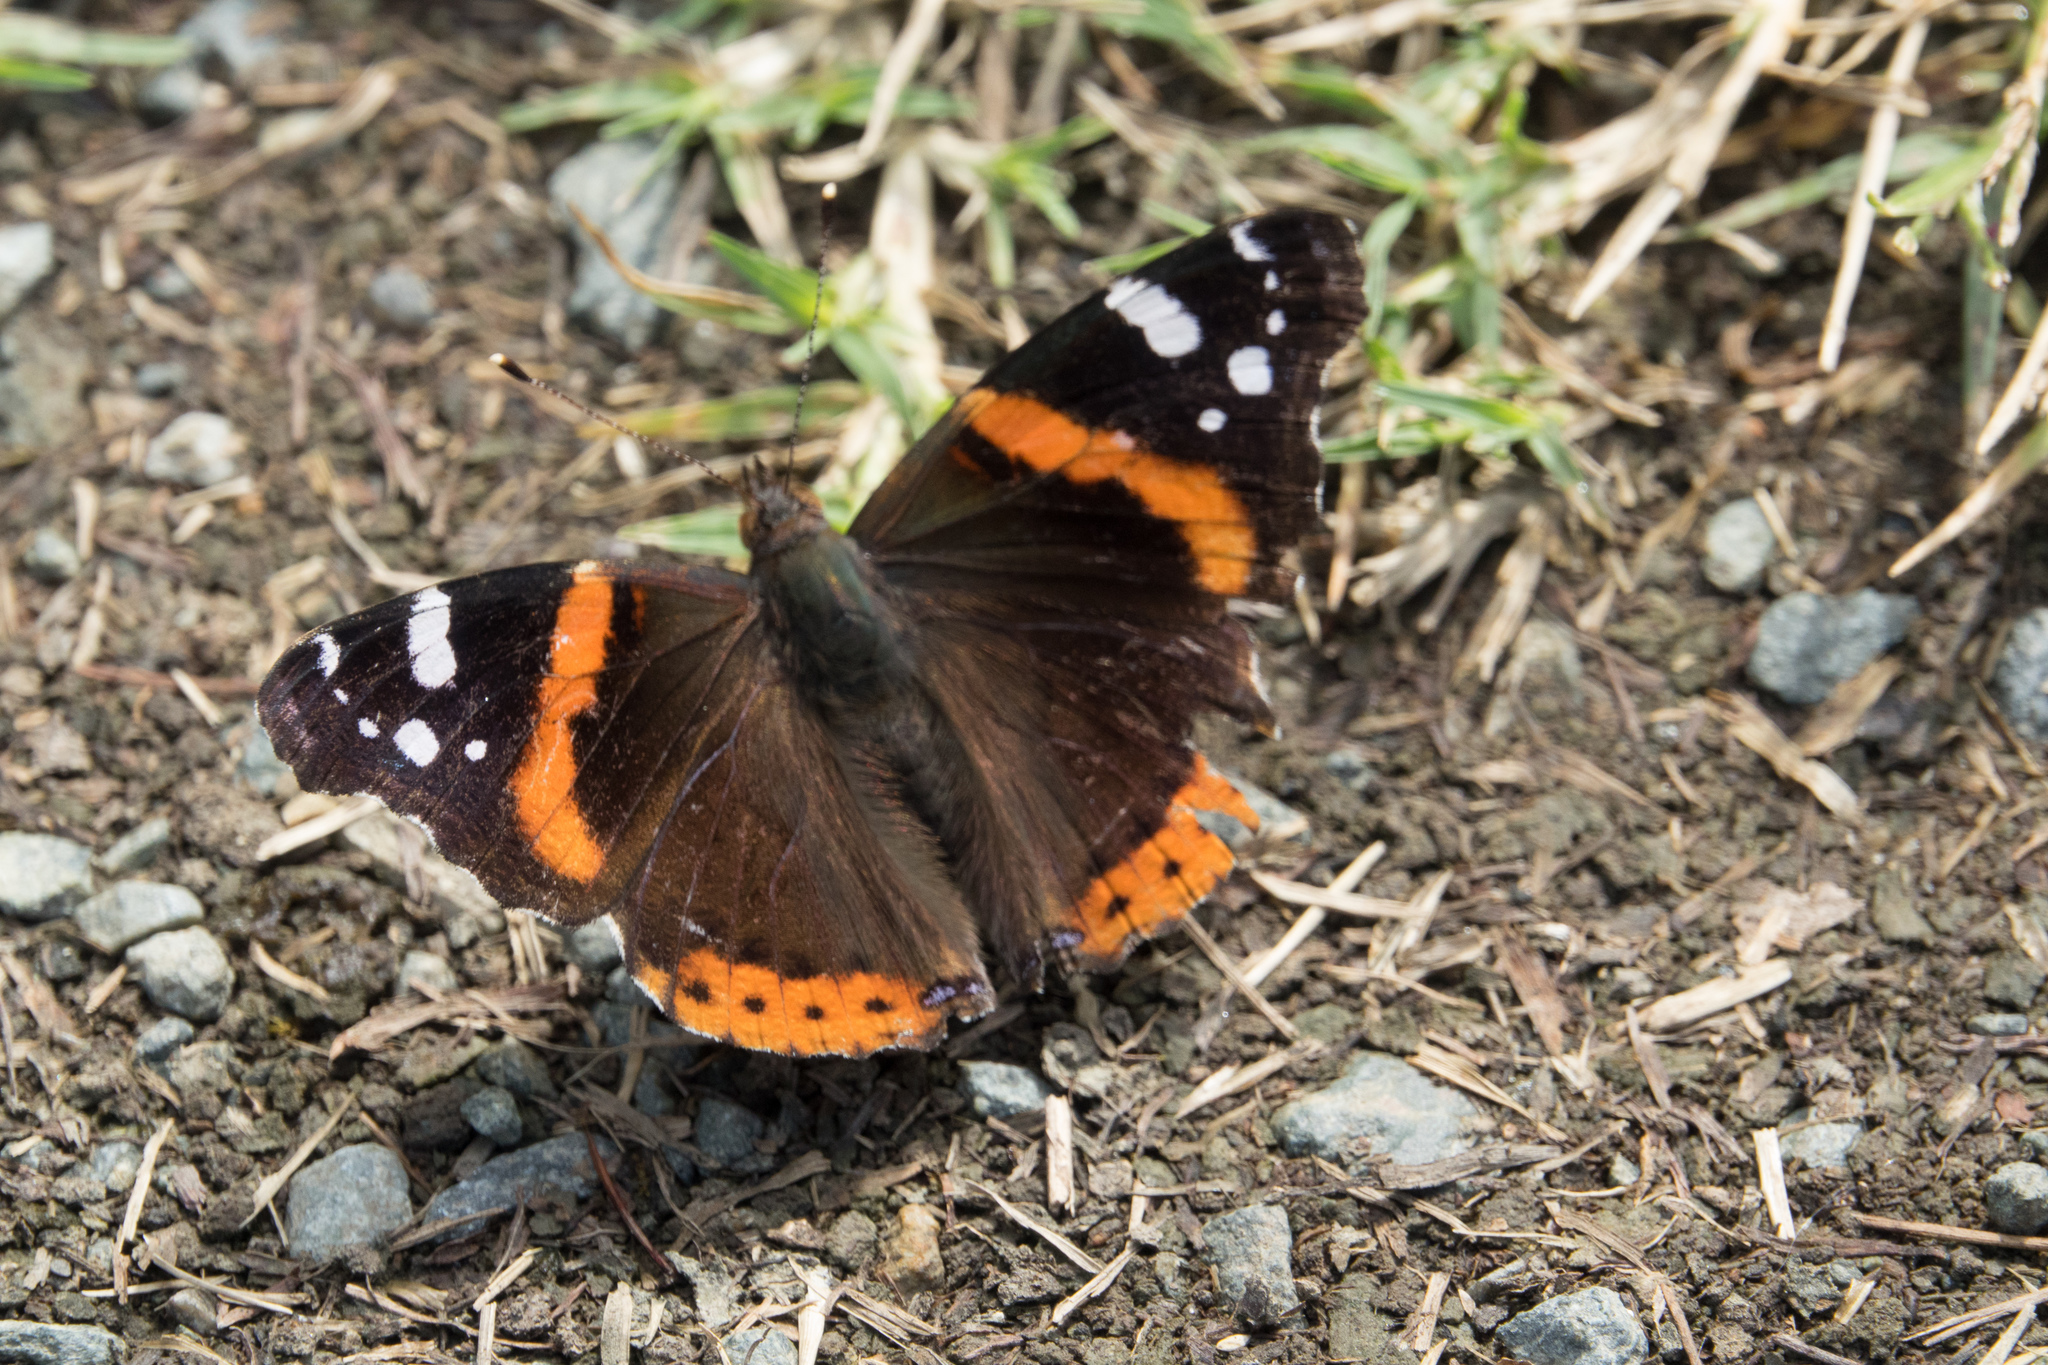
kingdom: Animalia
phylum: Arthropoda
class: Insecta
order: Lepidoptera
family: Nymphalidae
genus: Vanessa
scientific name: Vanessa atalanta
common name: Red admiral
